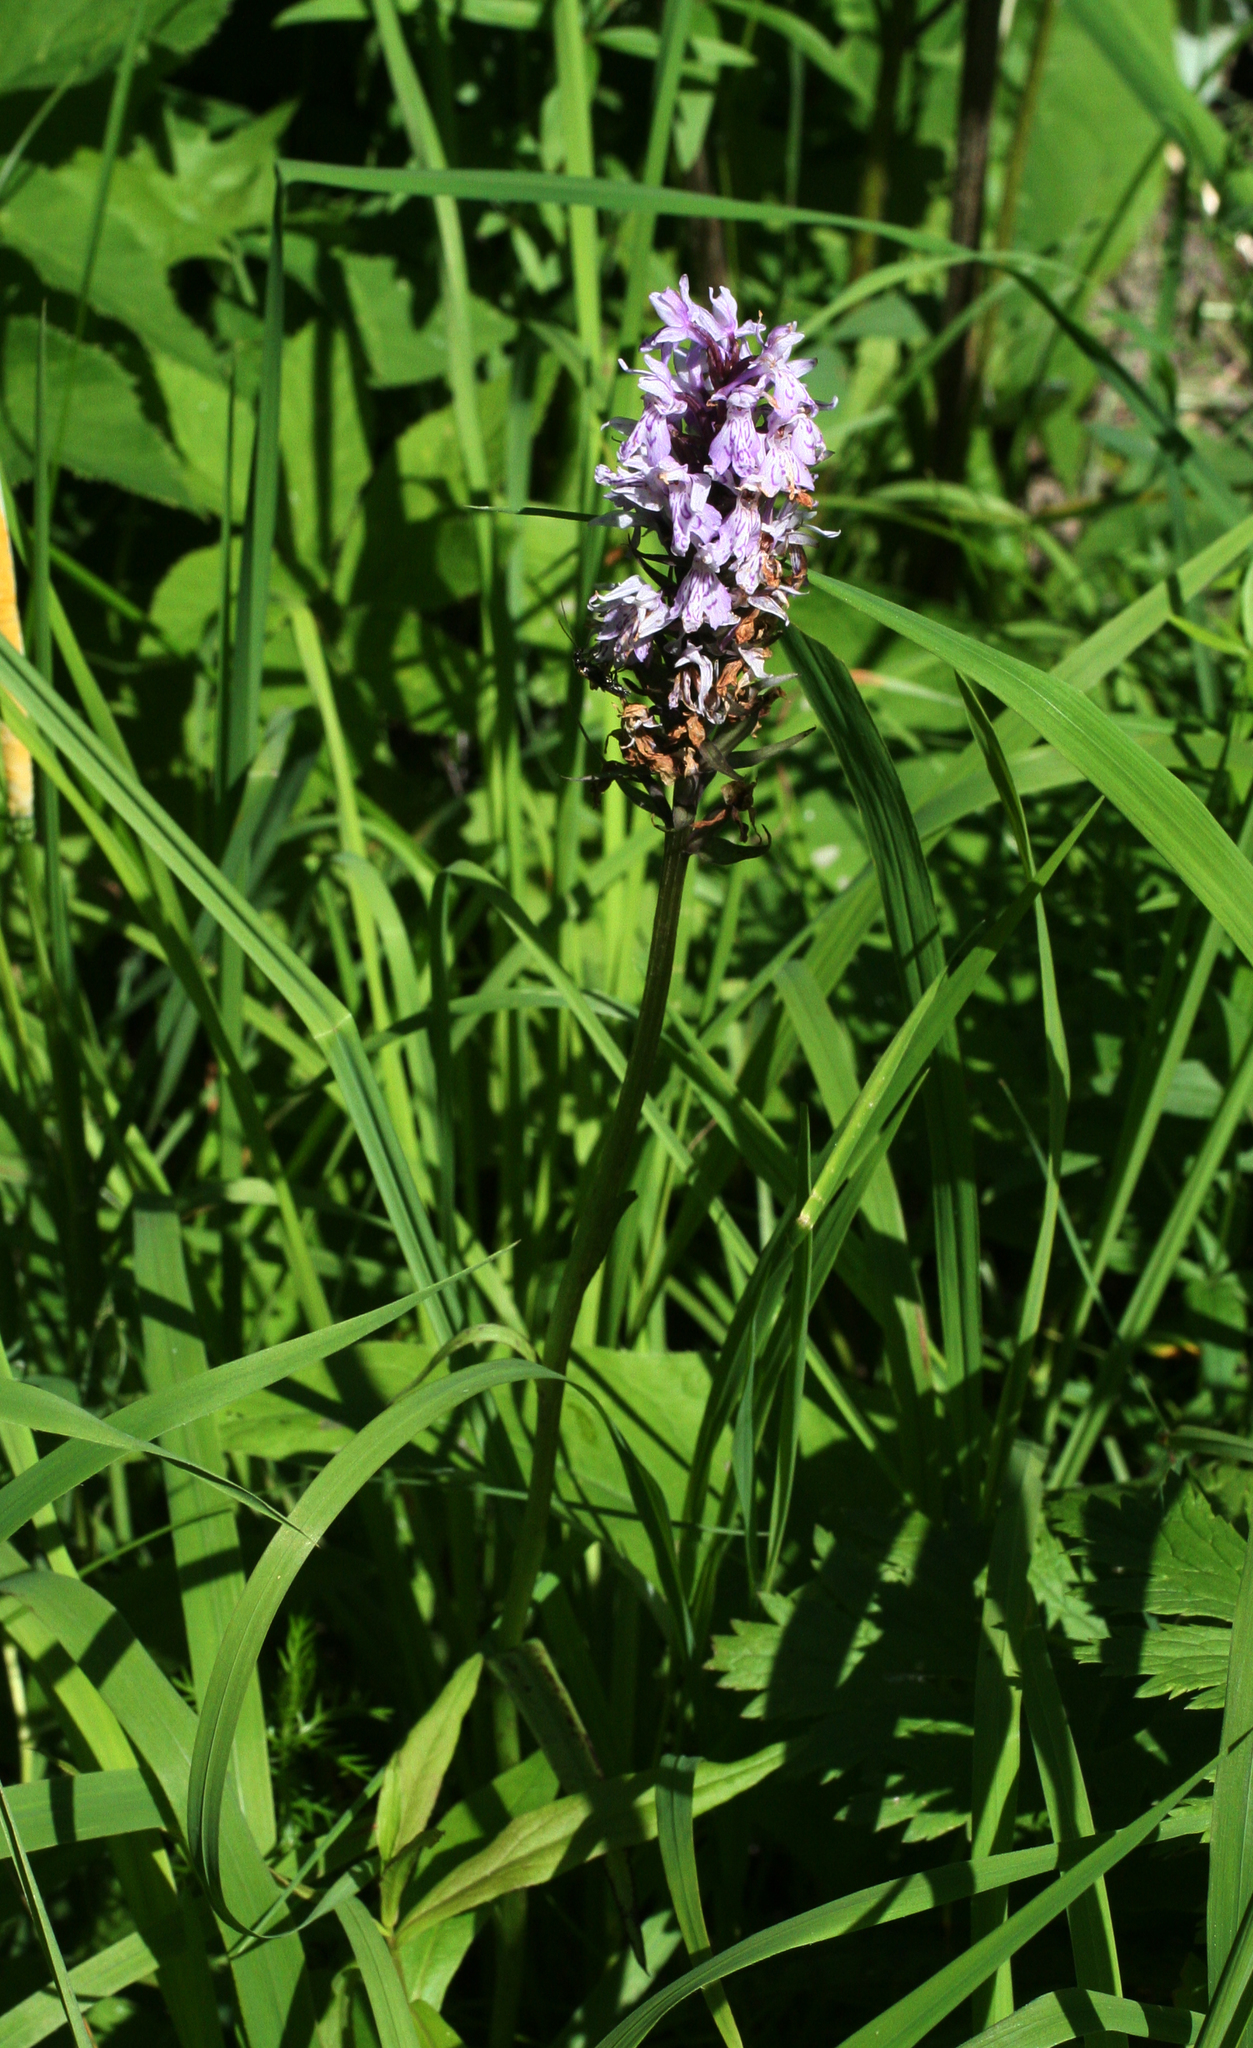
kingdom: Plantae
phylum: Tracheophyta
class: Liliopsida
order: Asparagales
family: Orchidaceae
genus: Dactylorhiza
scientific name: Dactylorhiza maculata
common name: Heath spotted-orchid
